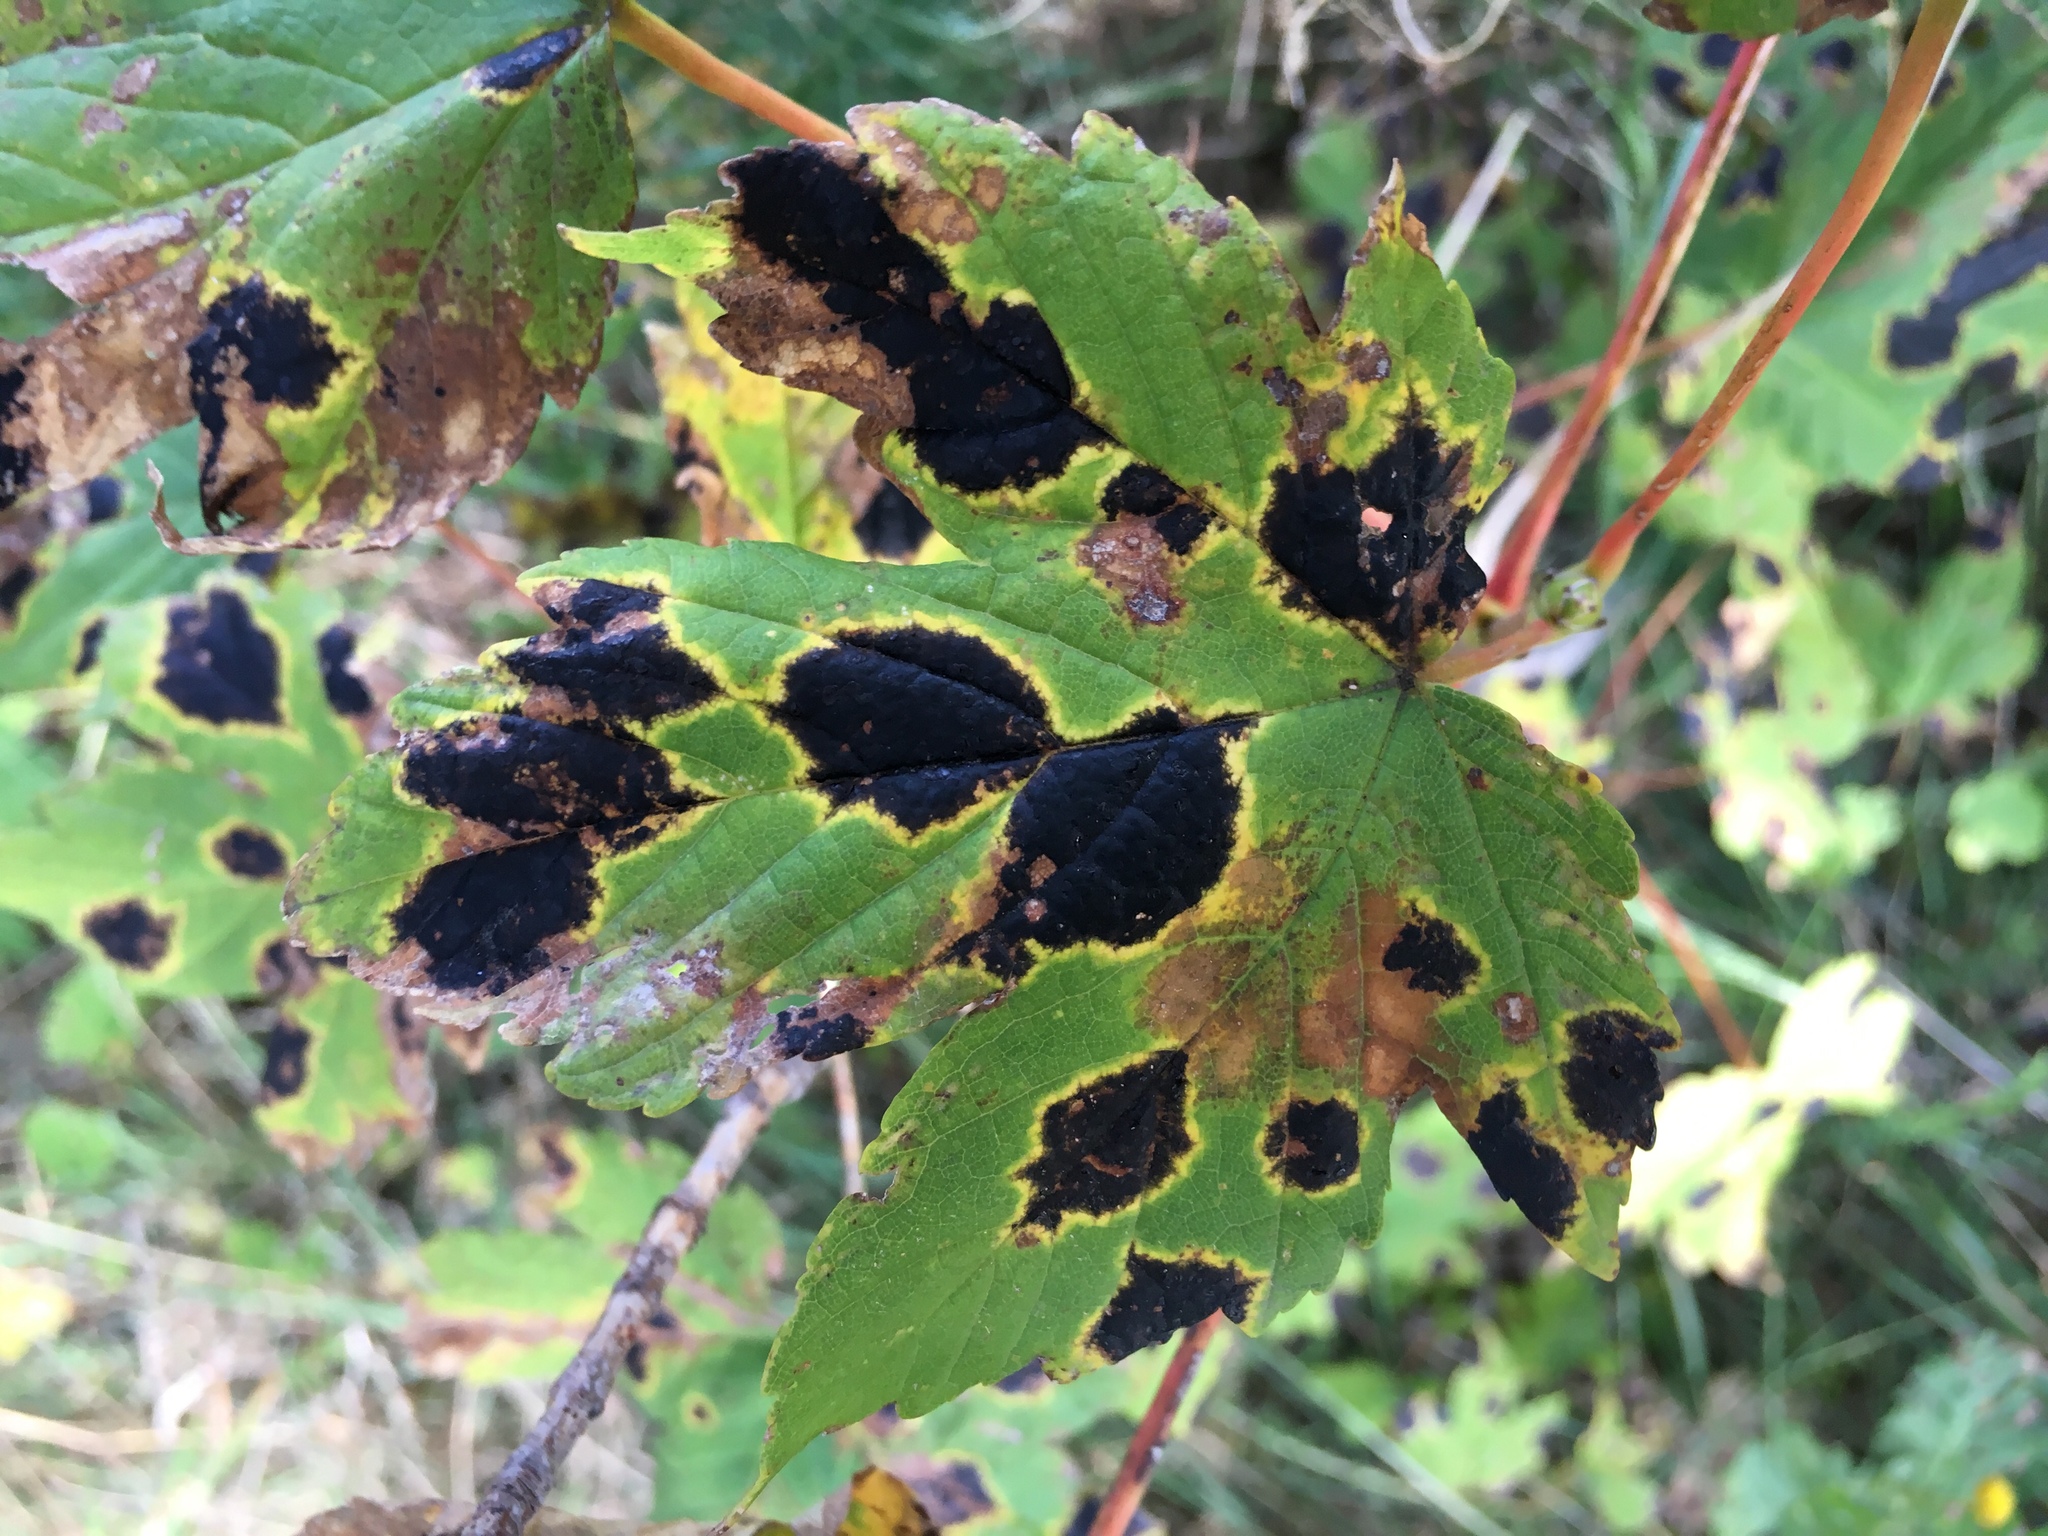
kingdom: Fungi
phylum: Ascomycota
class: Leotiomycetes
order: Rhytismatales
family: Rhytismataceae
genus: Rhytisma
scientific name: Rhytisma acerinum
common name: European tar spot
